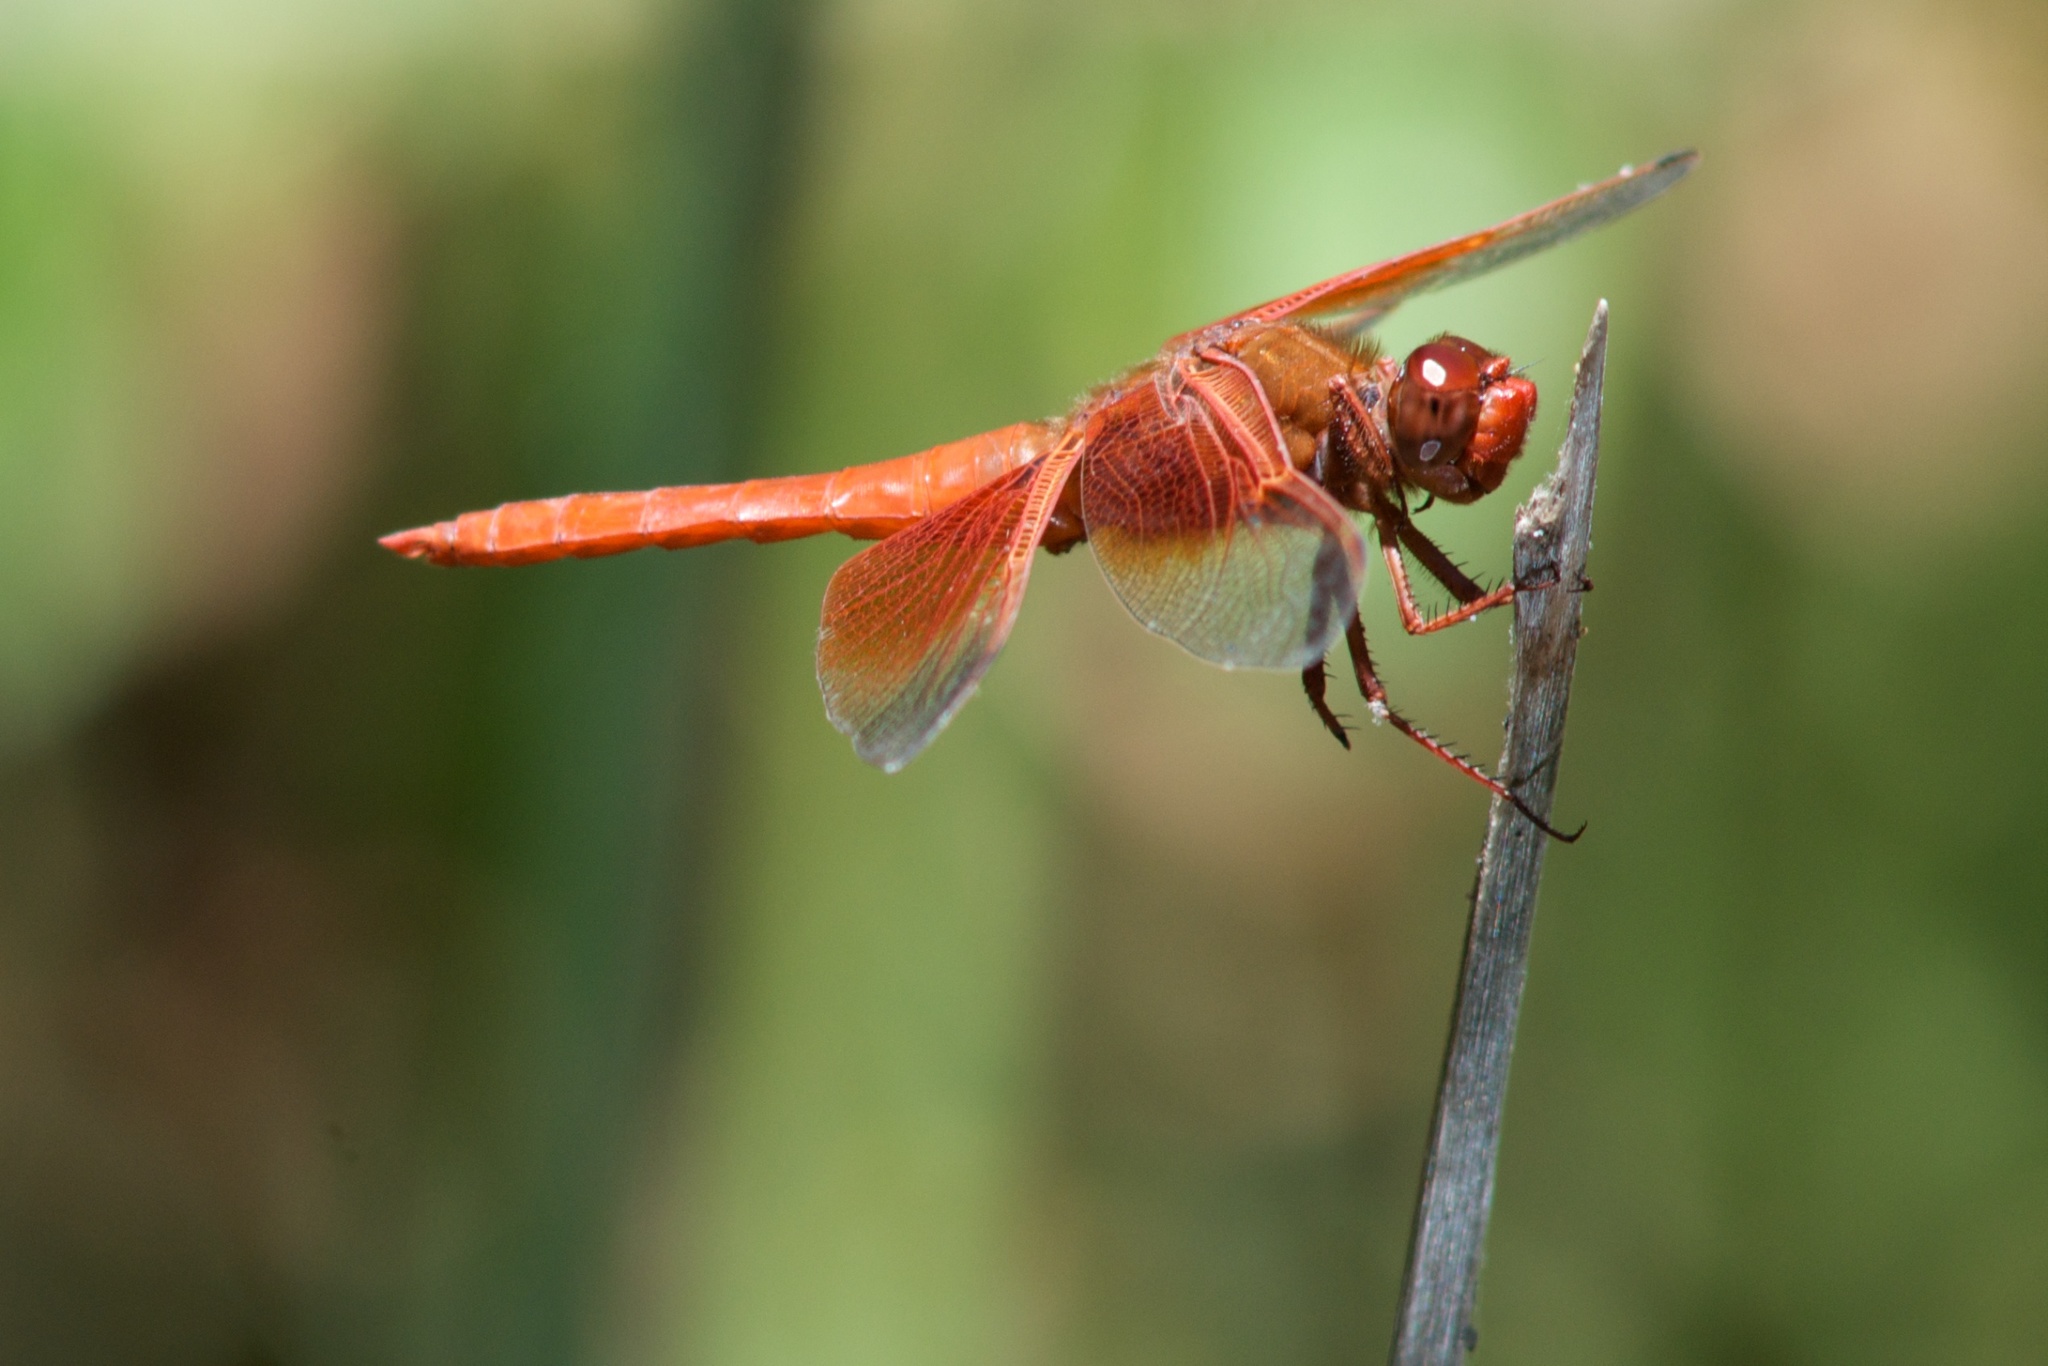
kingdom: Animalia
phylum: Arthropoda
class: Insecta
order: Odonata
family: Libellulidae
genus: Libellula
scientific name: Libellula saturata
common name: Flame skimmer
